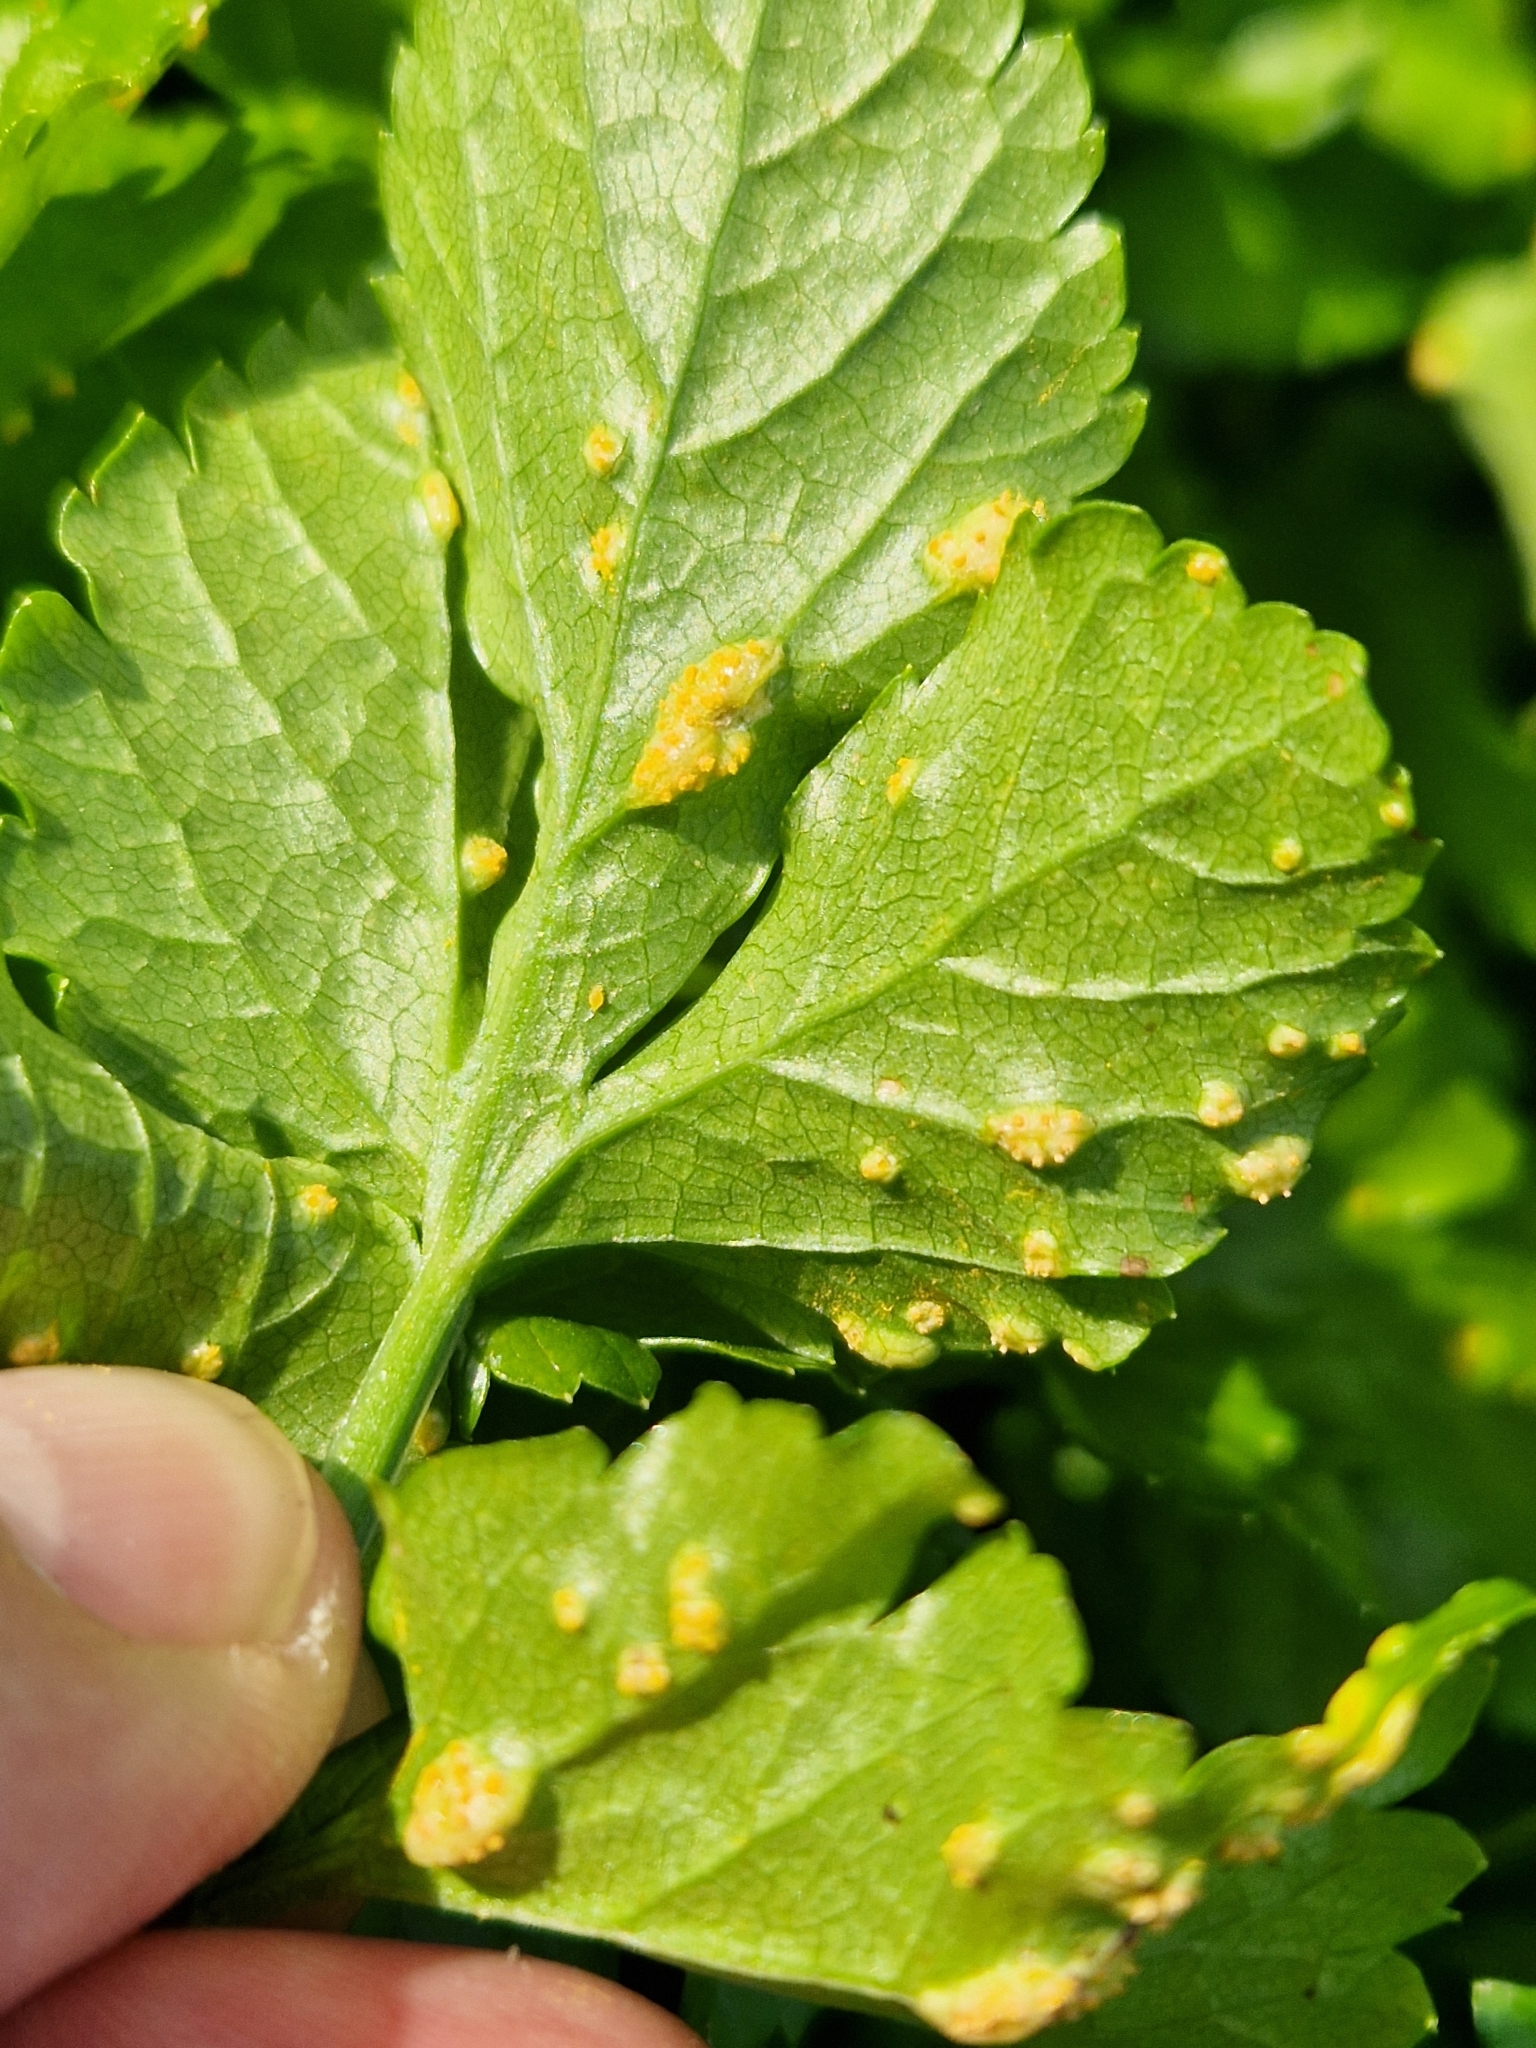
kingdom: Fungi
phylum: Basidiomycota
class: Pucciniomycetes
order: Pucciniales
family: Pucciniaceae
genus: Puccinia
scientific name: Puccinia smyrnii
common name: Alexanders rust
